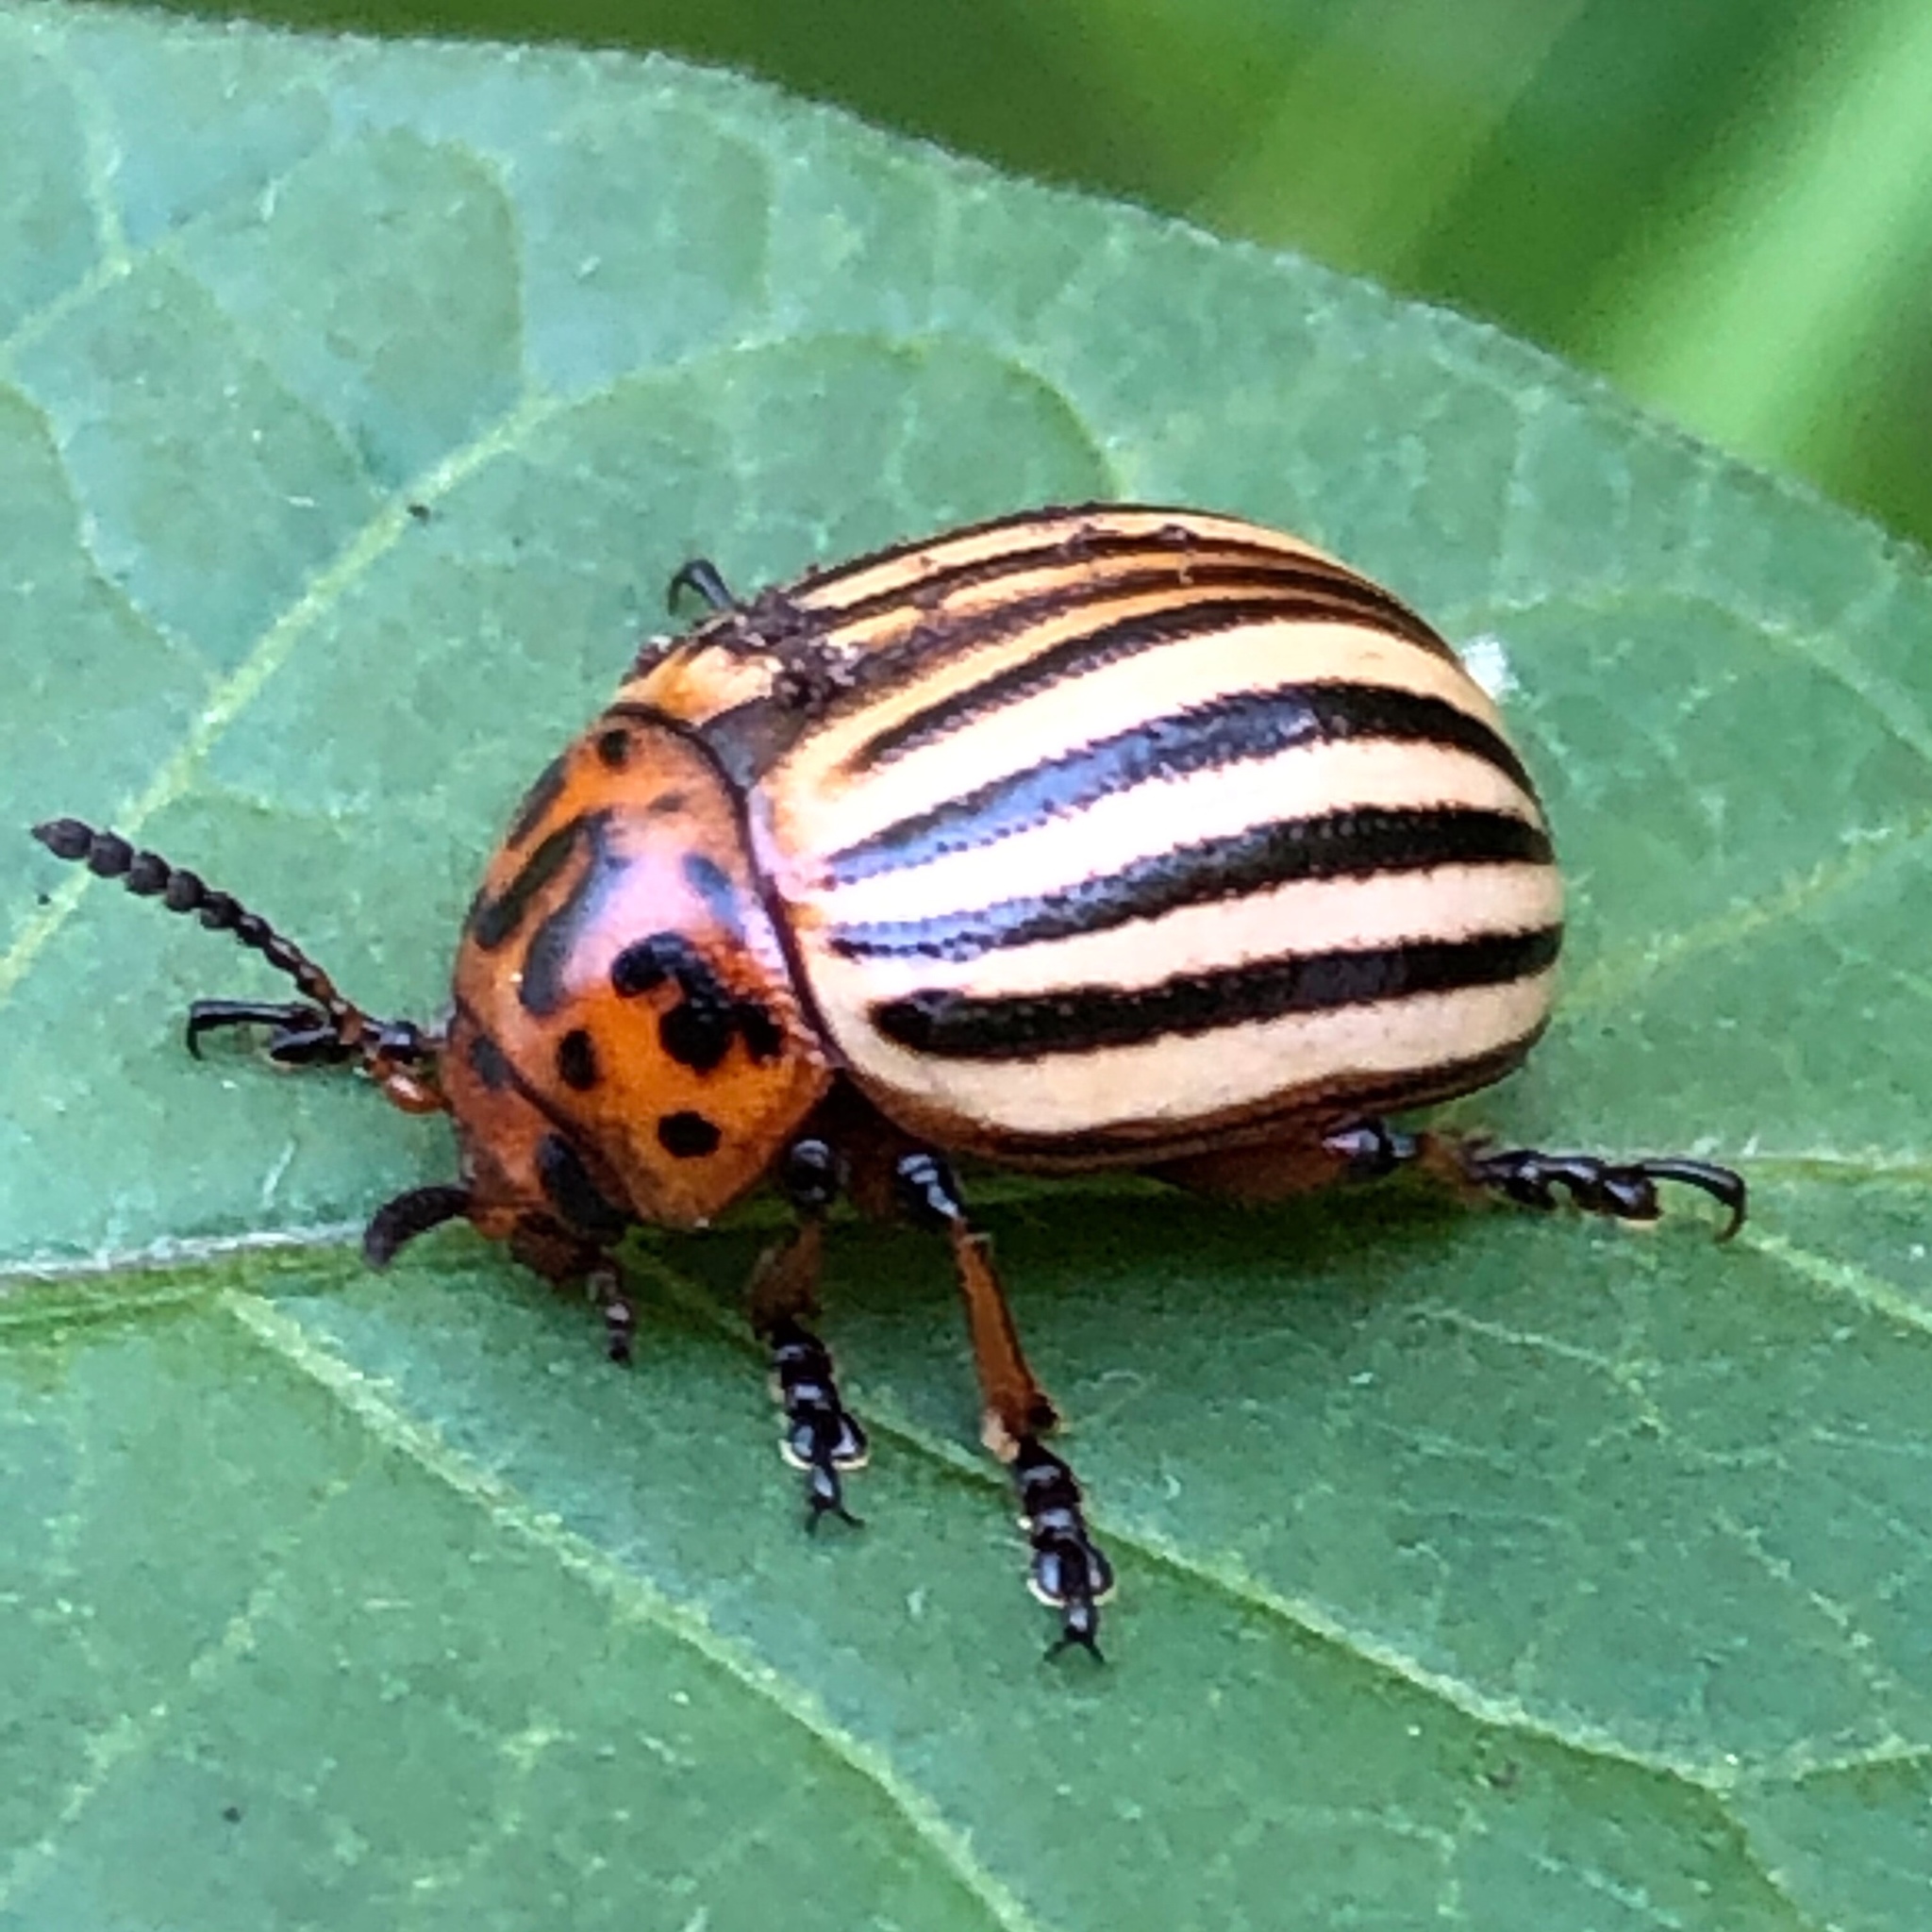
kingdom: Animalia
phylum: Arthropoda
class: Insecta
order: Coleoptera
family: Chrysomelidae
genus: Leptinotarsa
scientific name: Leptinotarsa decemlineata
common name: Colorado potato beetle
